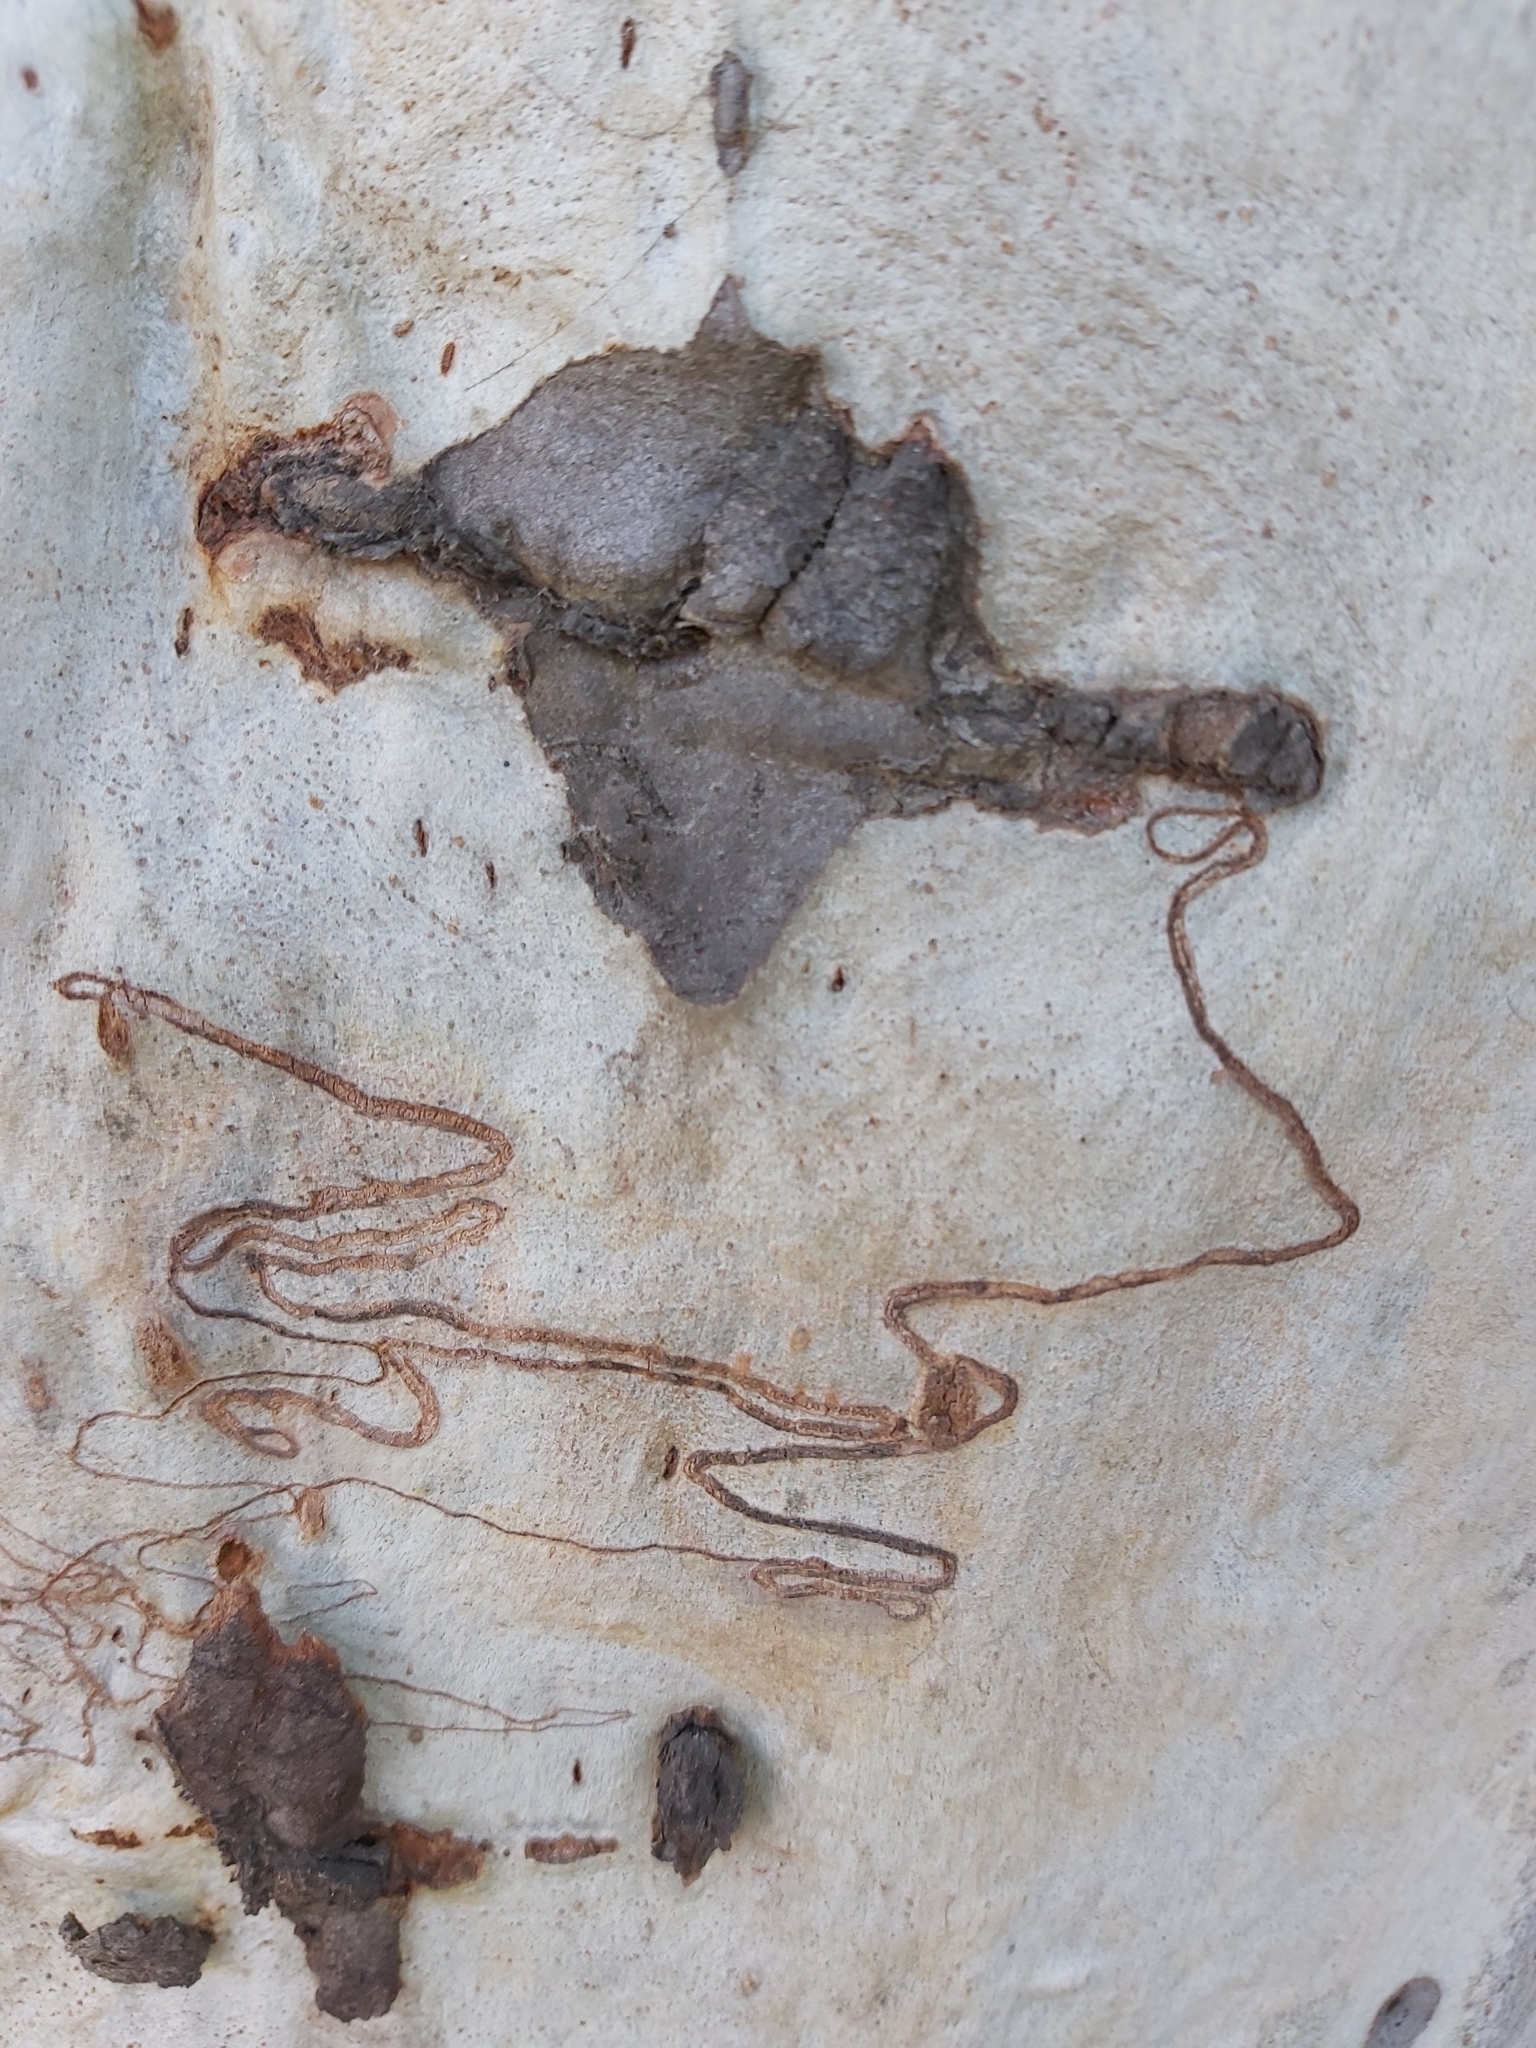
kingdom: Animalia
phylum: Arthropoda
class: Insecta
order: Lepidoptera
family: Bucculatricidae
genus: Ogmograptis
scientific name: Ogmograptis scribula
